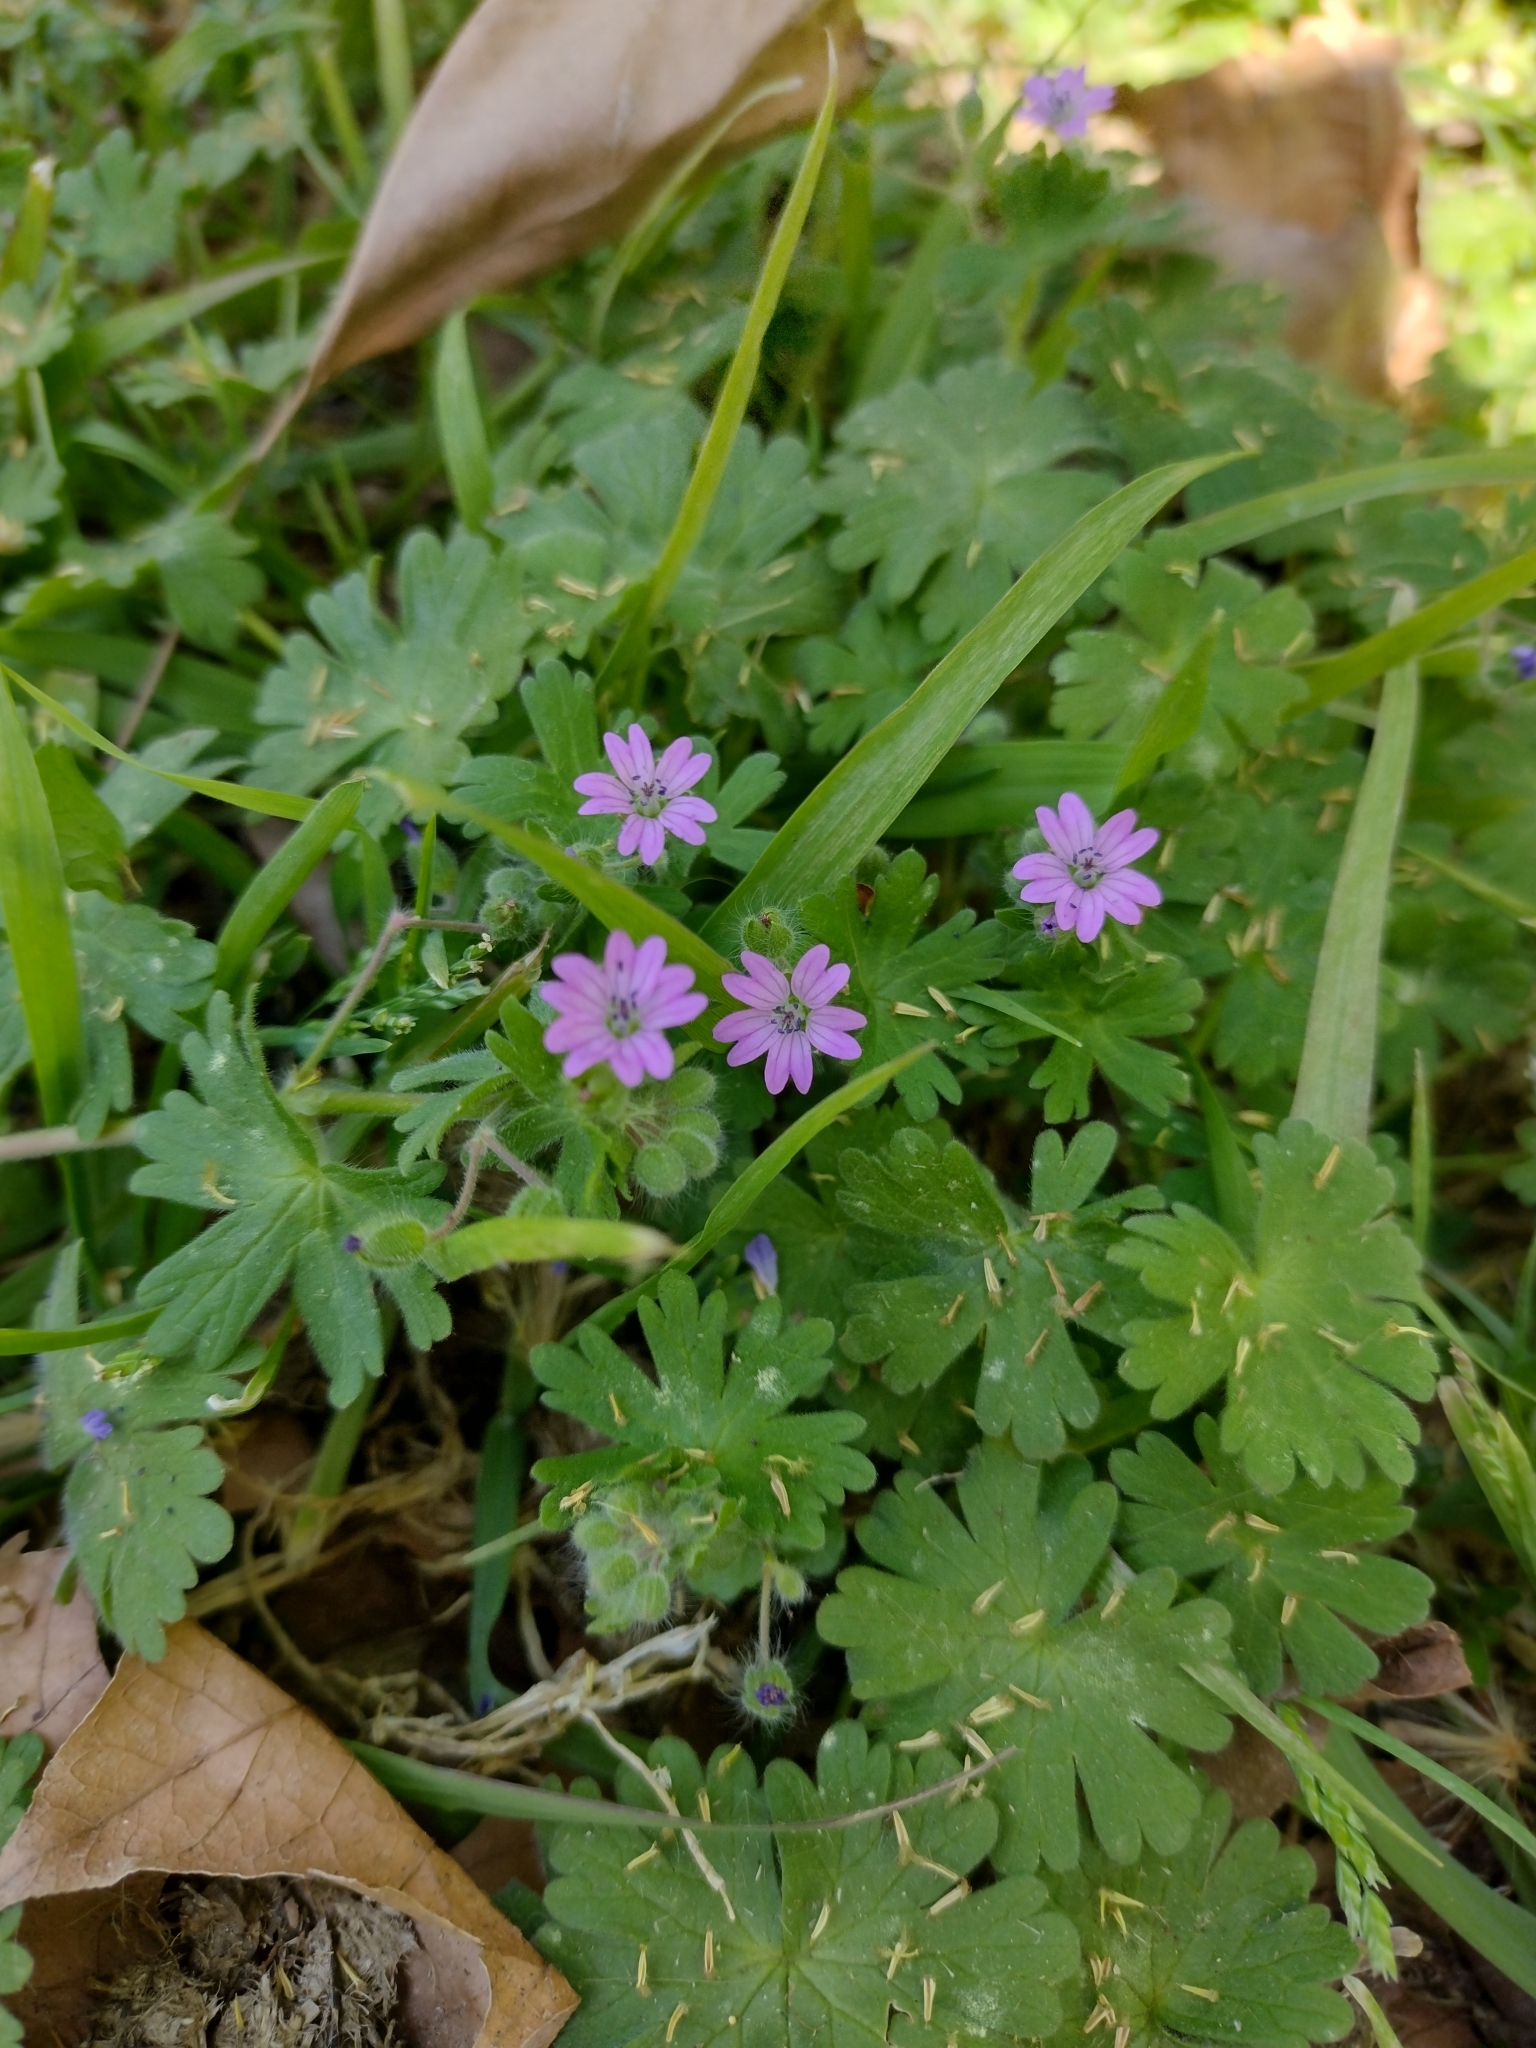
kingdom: Plantae
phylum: Tracheophyta
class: Magnoliopsida
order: Geraniales
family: Geraniaceae
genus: Geranium
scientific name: Geranium molle
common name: Dove's-foot crane's-bill
